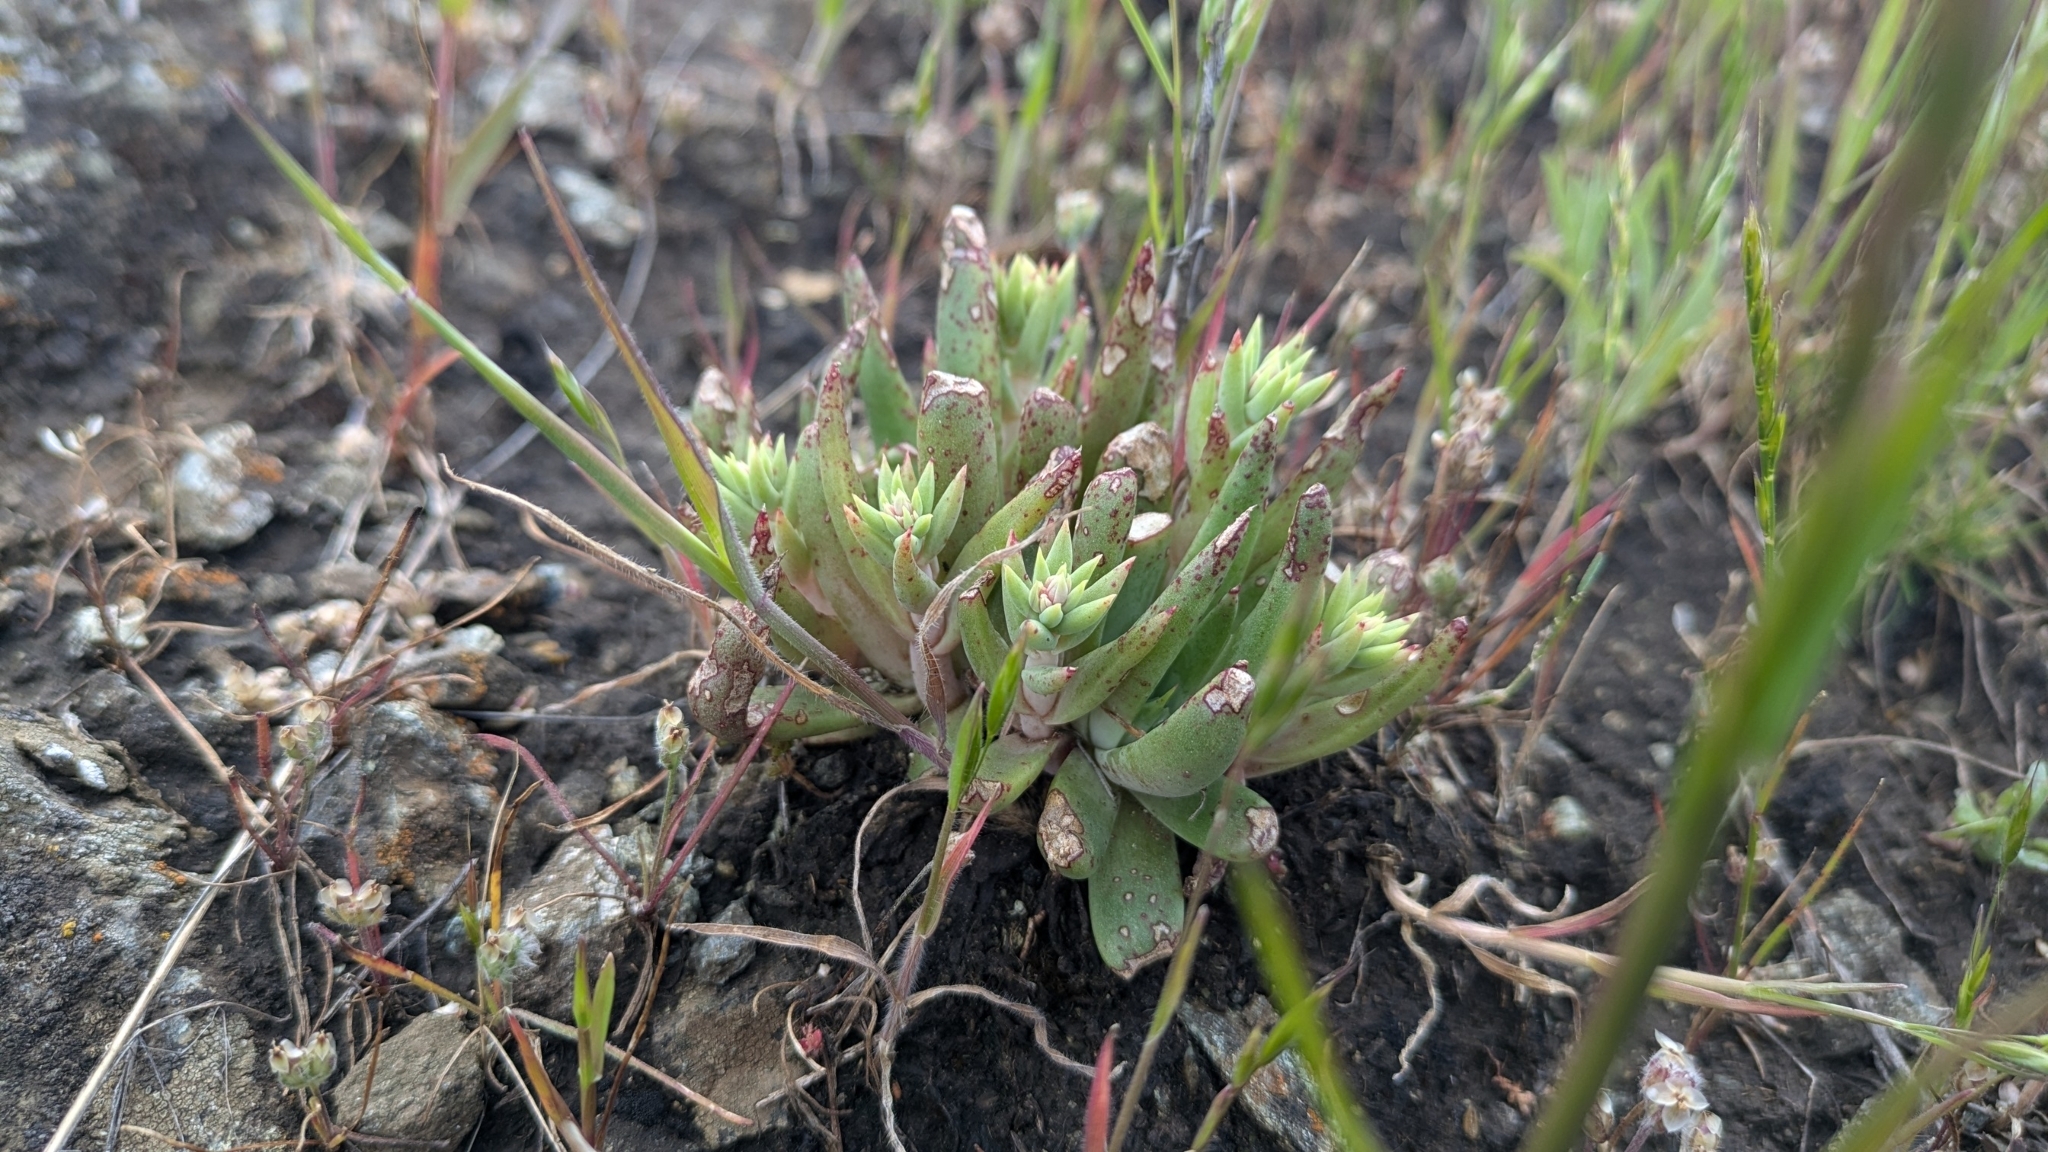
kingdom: Plantae
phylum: Tracheophyta
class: Magnoliopsida
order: Saxifragales
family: Crassulaceae
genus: Dudleya
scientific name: Dudleya abramsii
